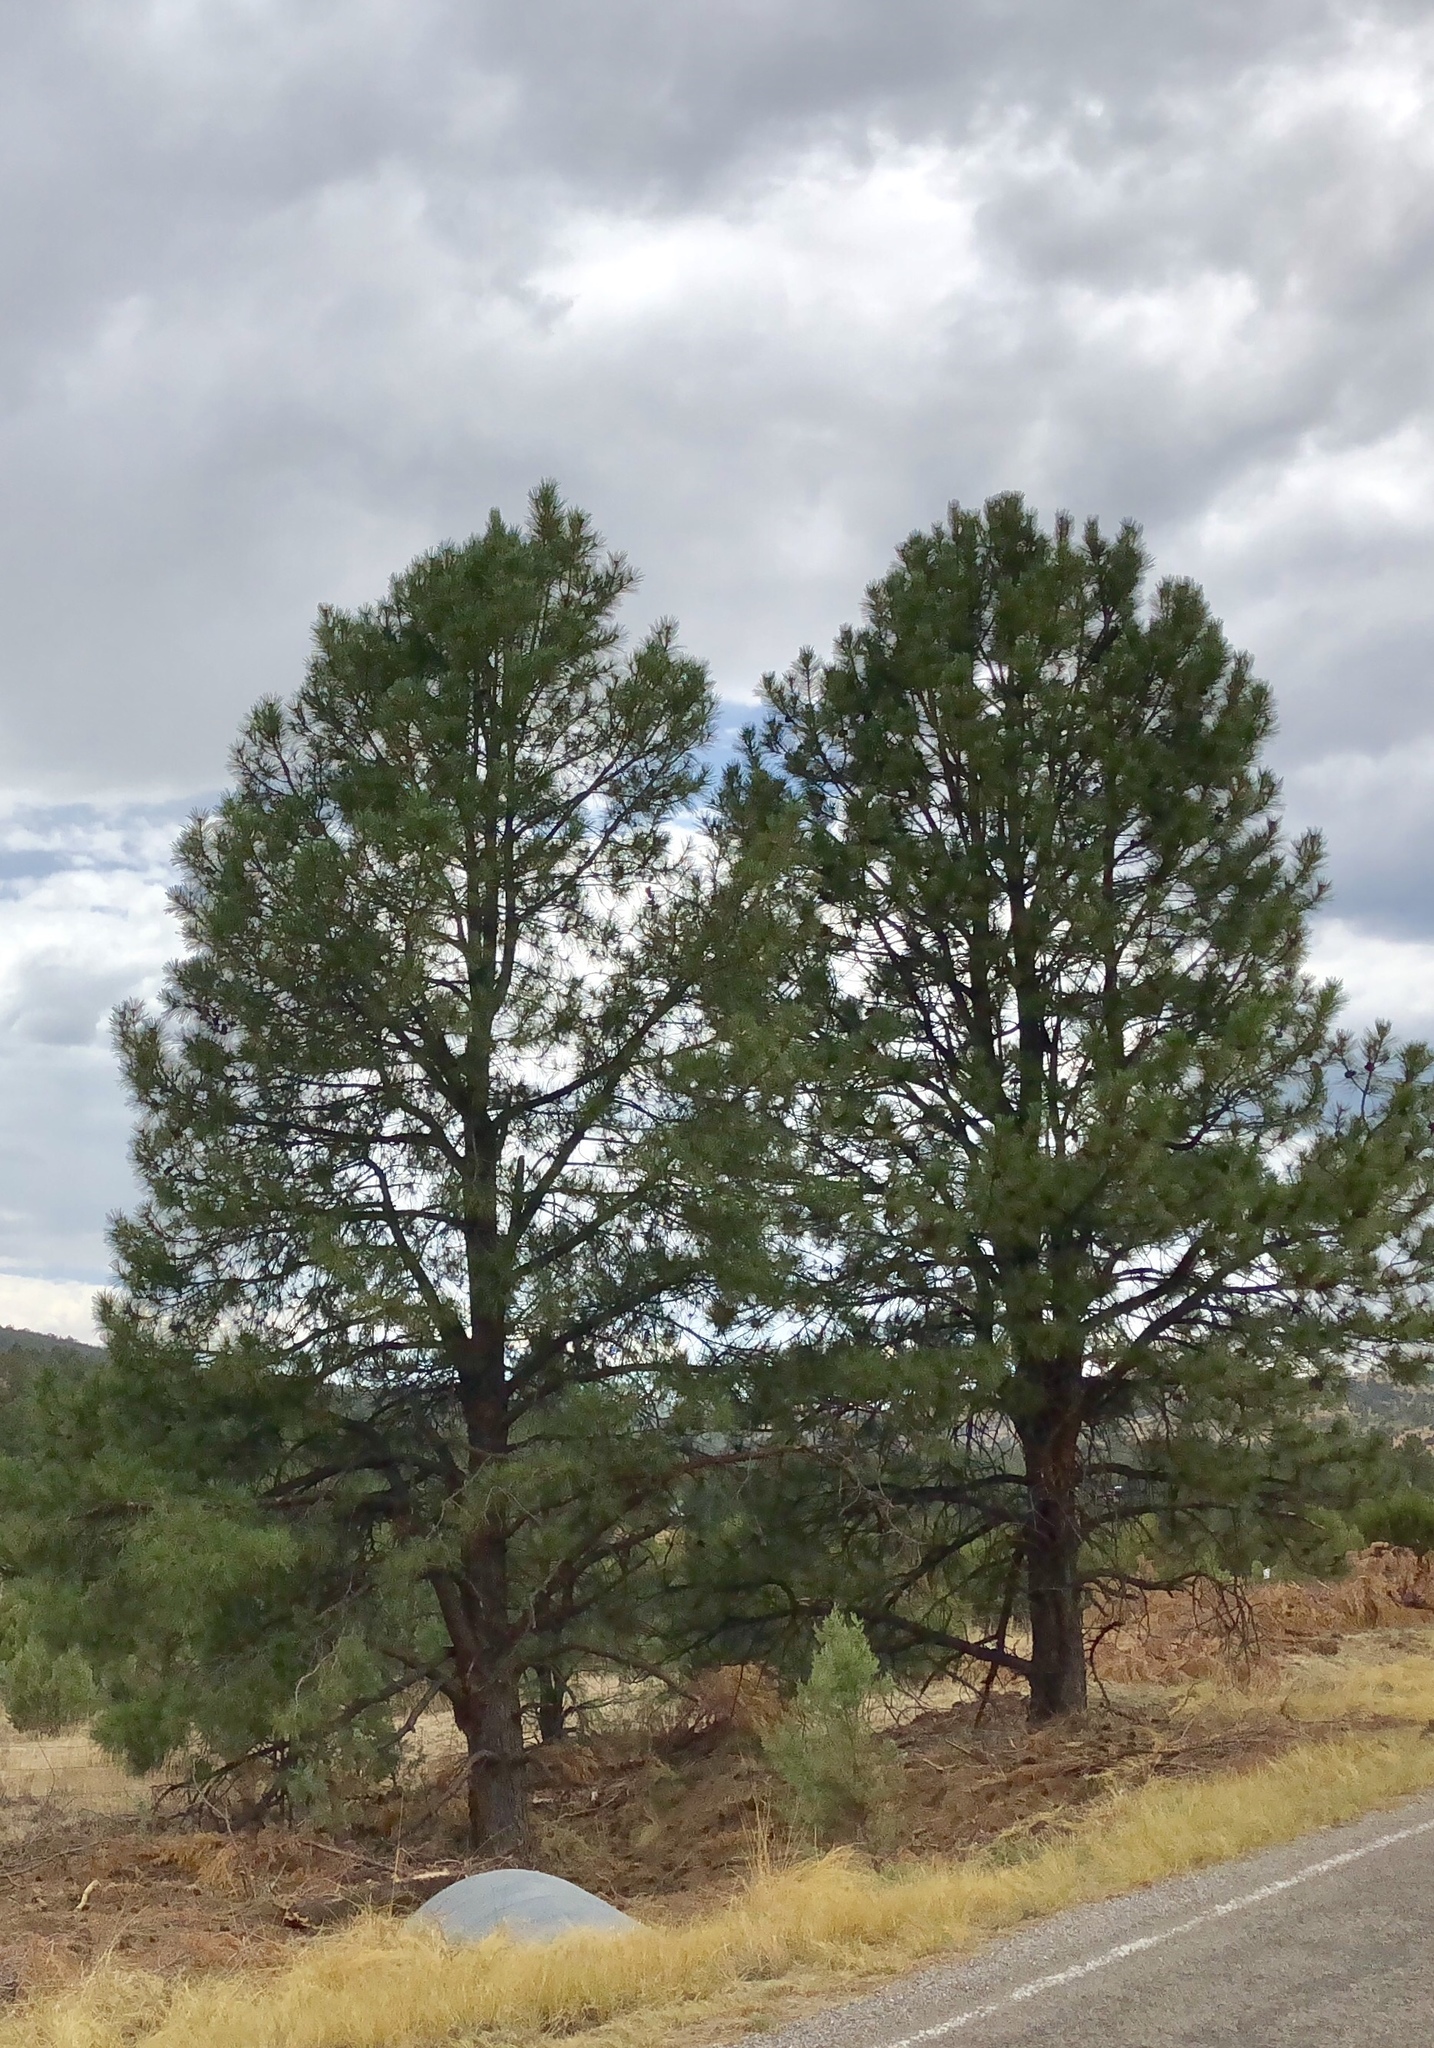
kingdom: Plantae
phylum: Tracheophyta
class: Pinopsida
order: Pinales
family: Pinaceae
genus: Pinus
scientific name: Pinus ponderosa
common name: Western yellow-pine
